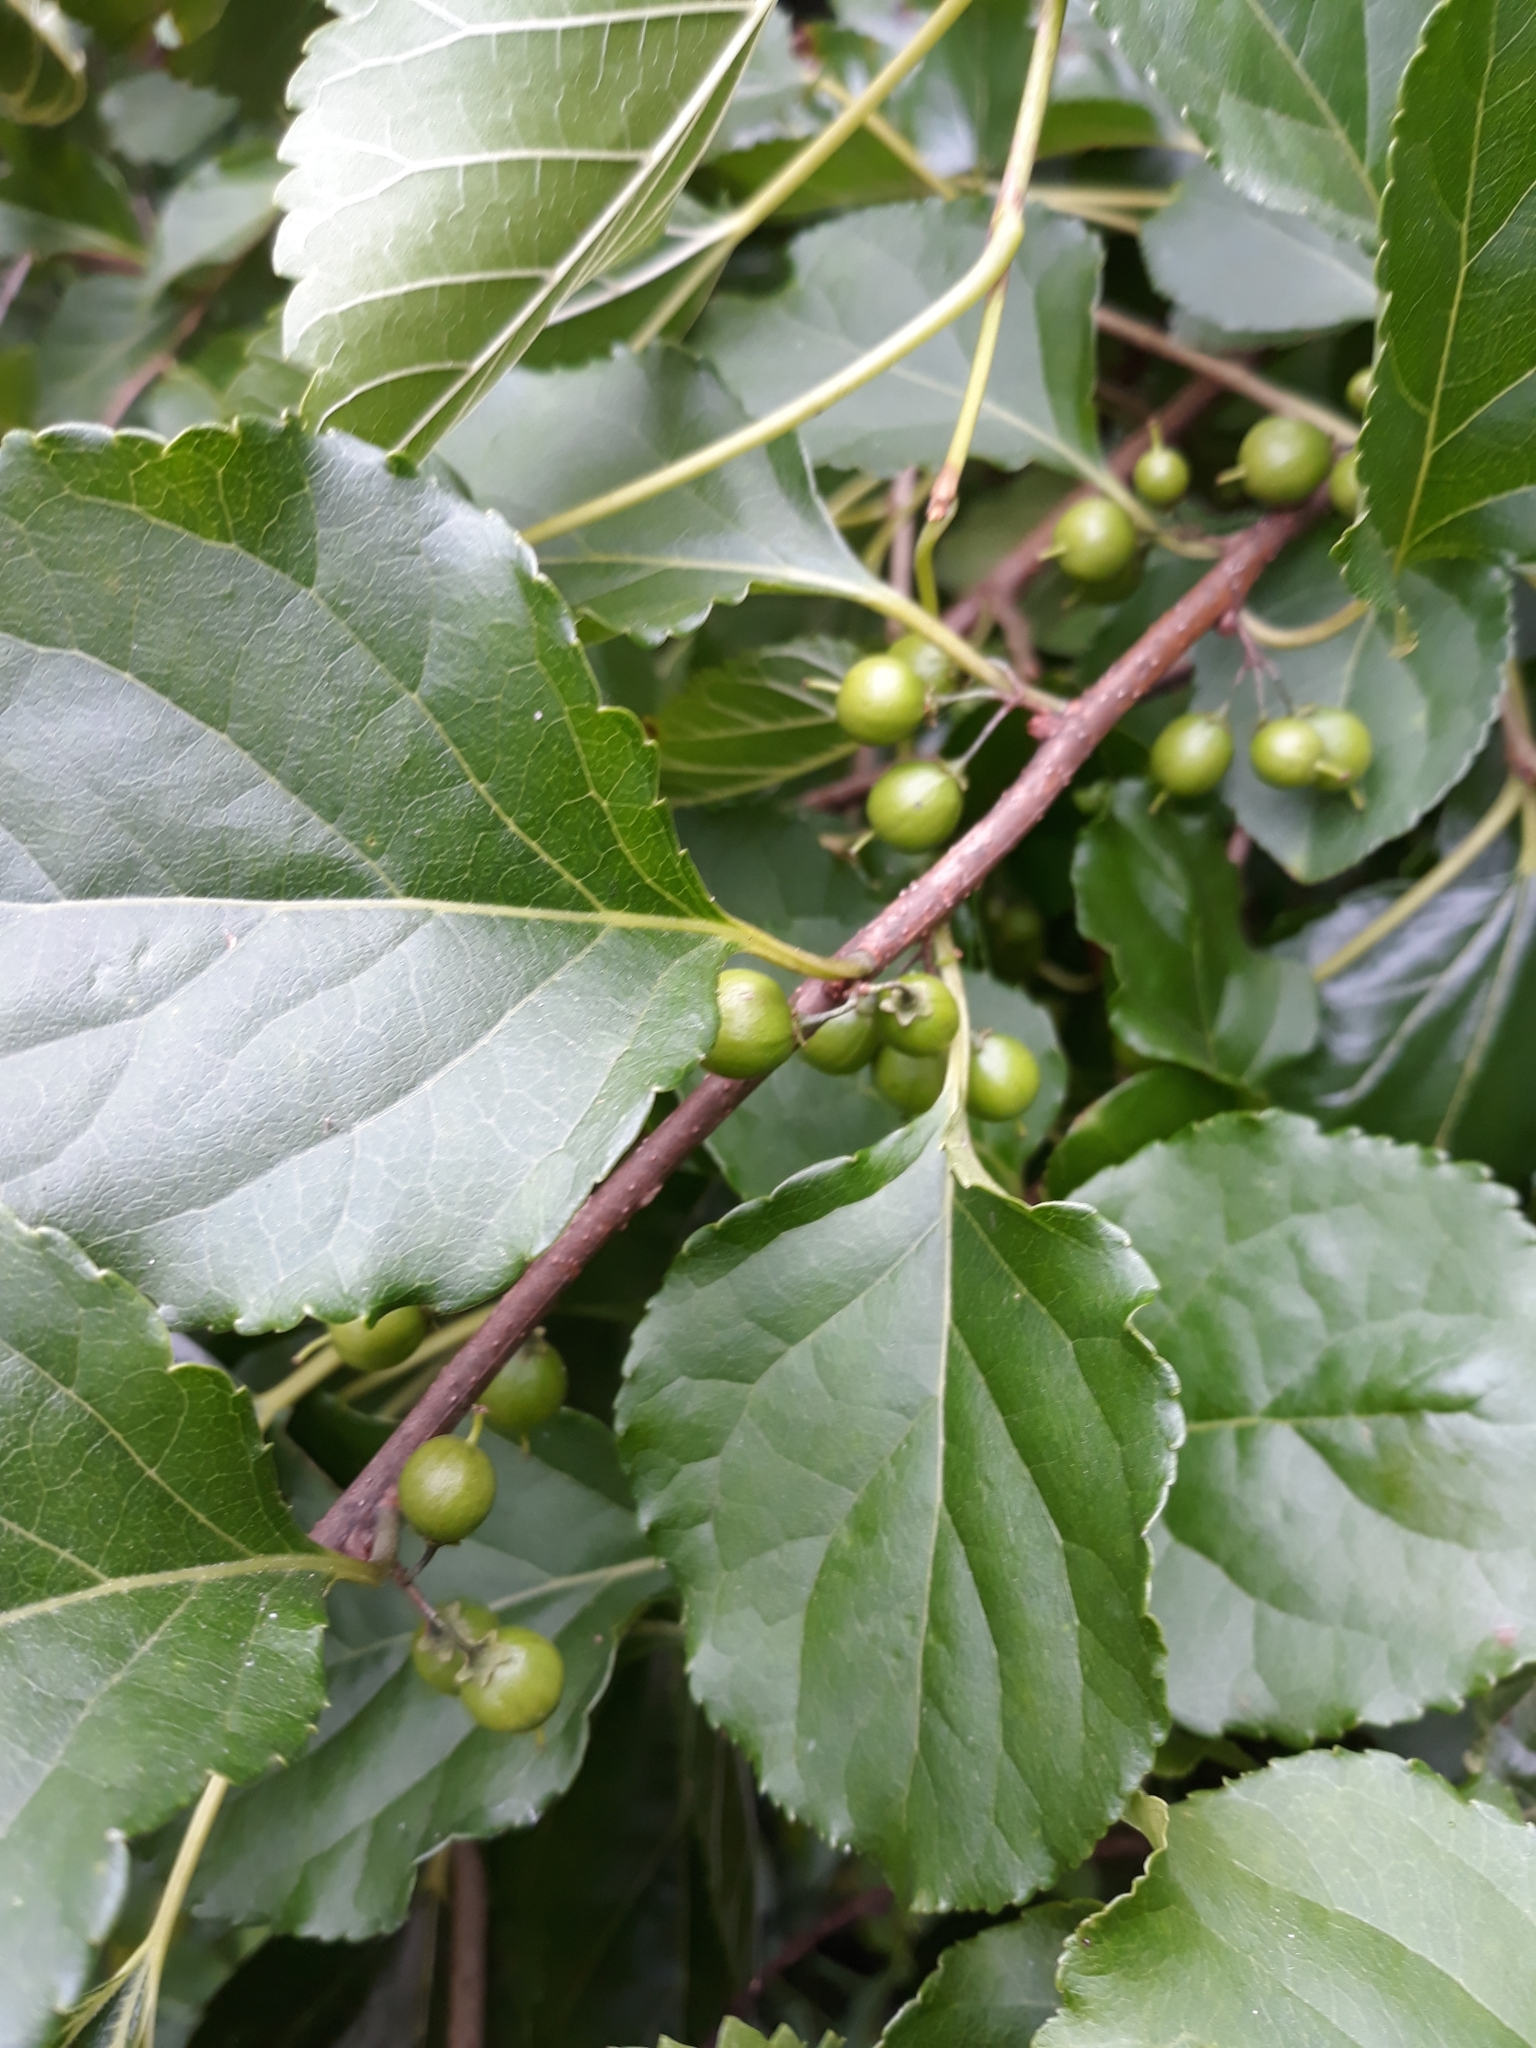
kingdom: Plantae
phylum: Tracheophyta
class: Magnoliopsida
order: Celastrales
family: Celastraceae
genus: Celastrus
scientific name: Celastrus orbiculatus
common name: Oriental bittersweet
